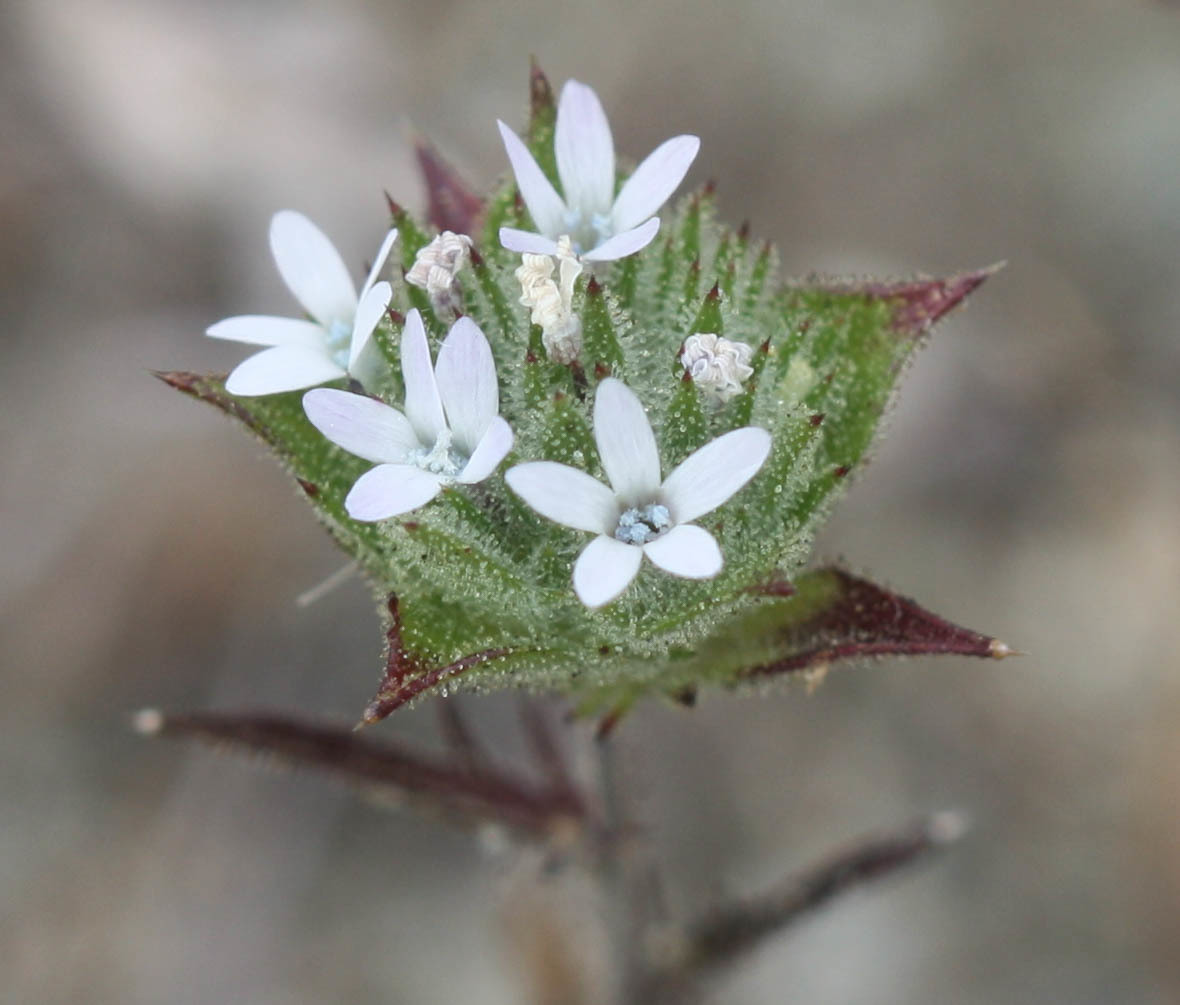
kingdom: Plantae
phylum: Tracheophyta
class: Magnoliopsida
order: Ericales
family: Polemoniaceae
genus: Navarretia
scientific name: Navarretia rosulata
